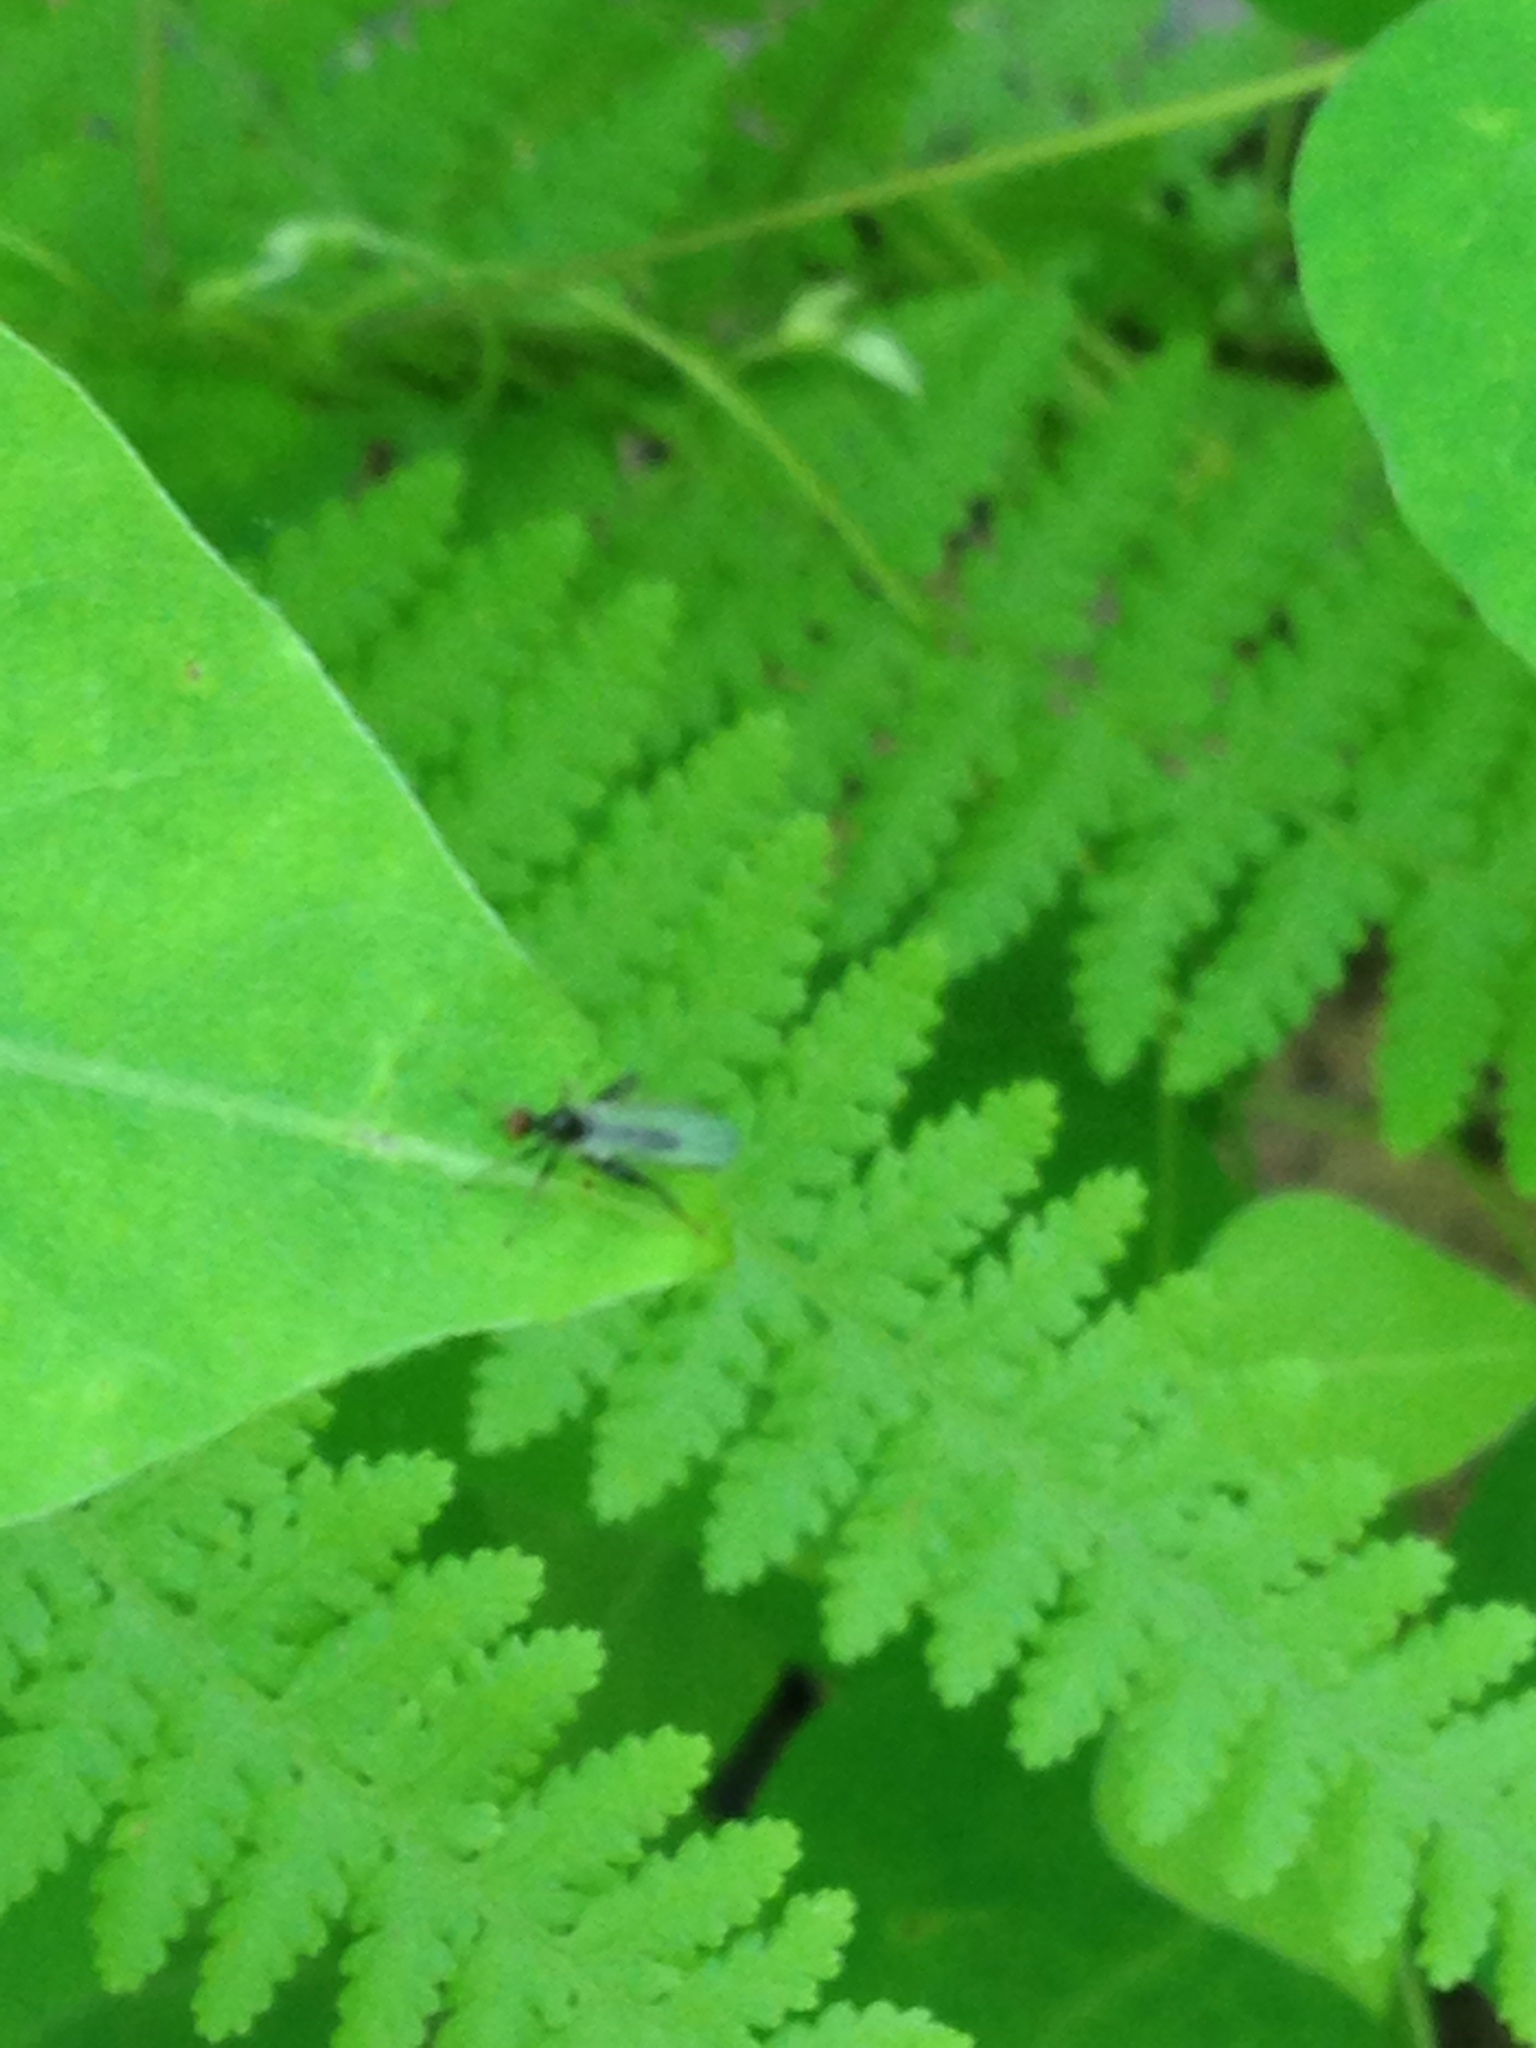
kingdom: Animalia
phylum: Arthropoda
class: Insecta
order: Diptera
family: Hybotidae
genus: Hybos
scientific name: Hybos reversus
